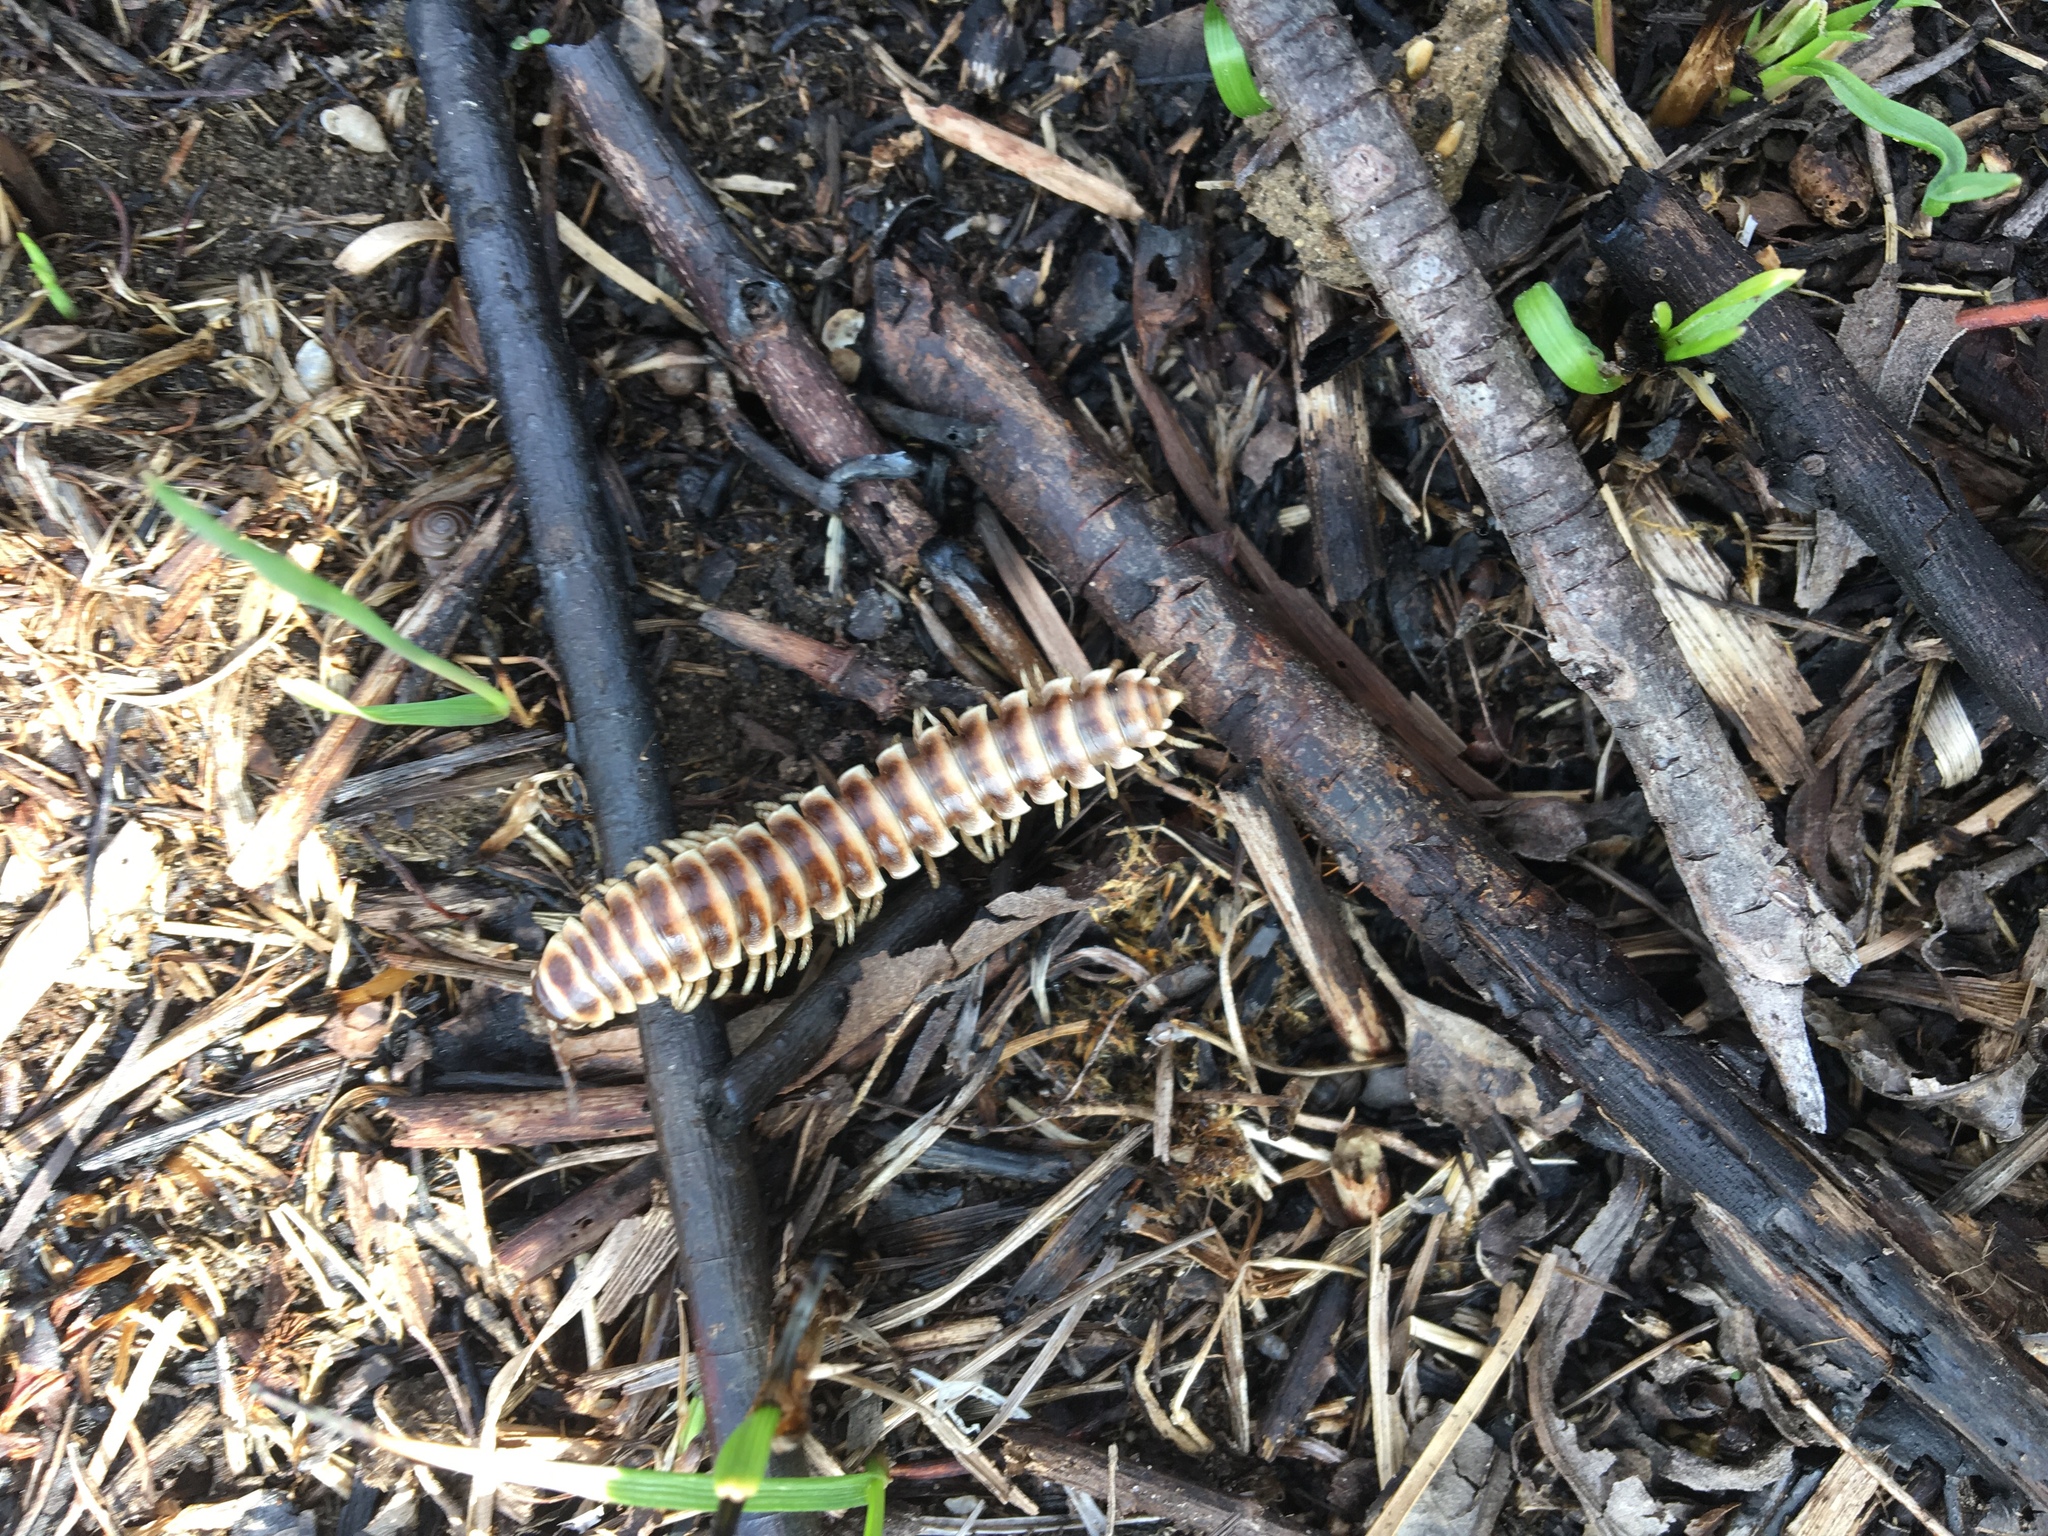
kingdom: Animalia
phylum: Arthropoda
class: Diplopoda
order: Polydesmida
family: Xystodesmidae
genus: Pleuroloma
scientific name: Pleuroloma flavipes
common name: Yellow-legged pleuroloma
